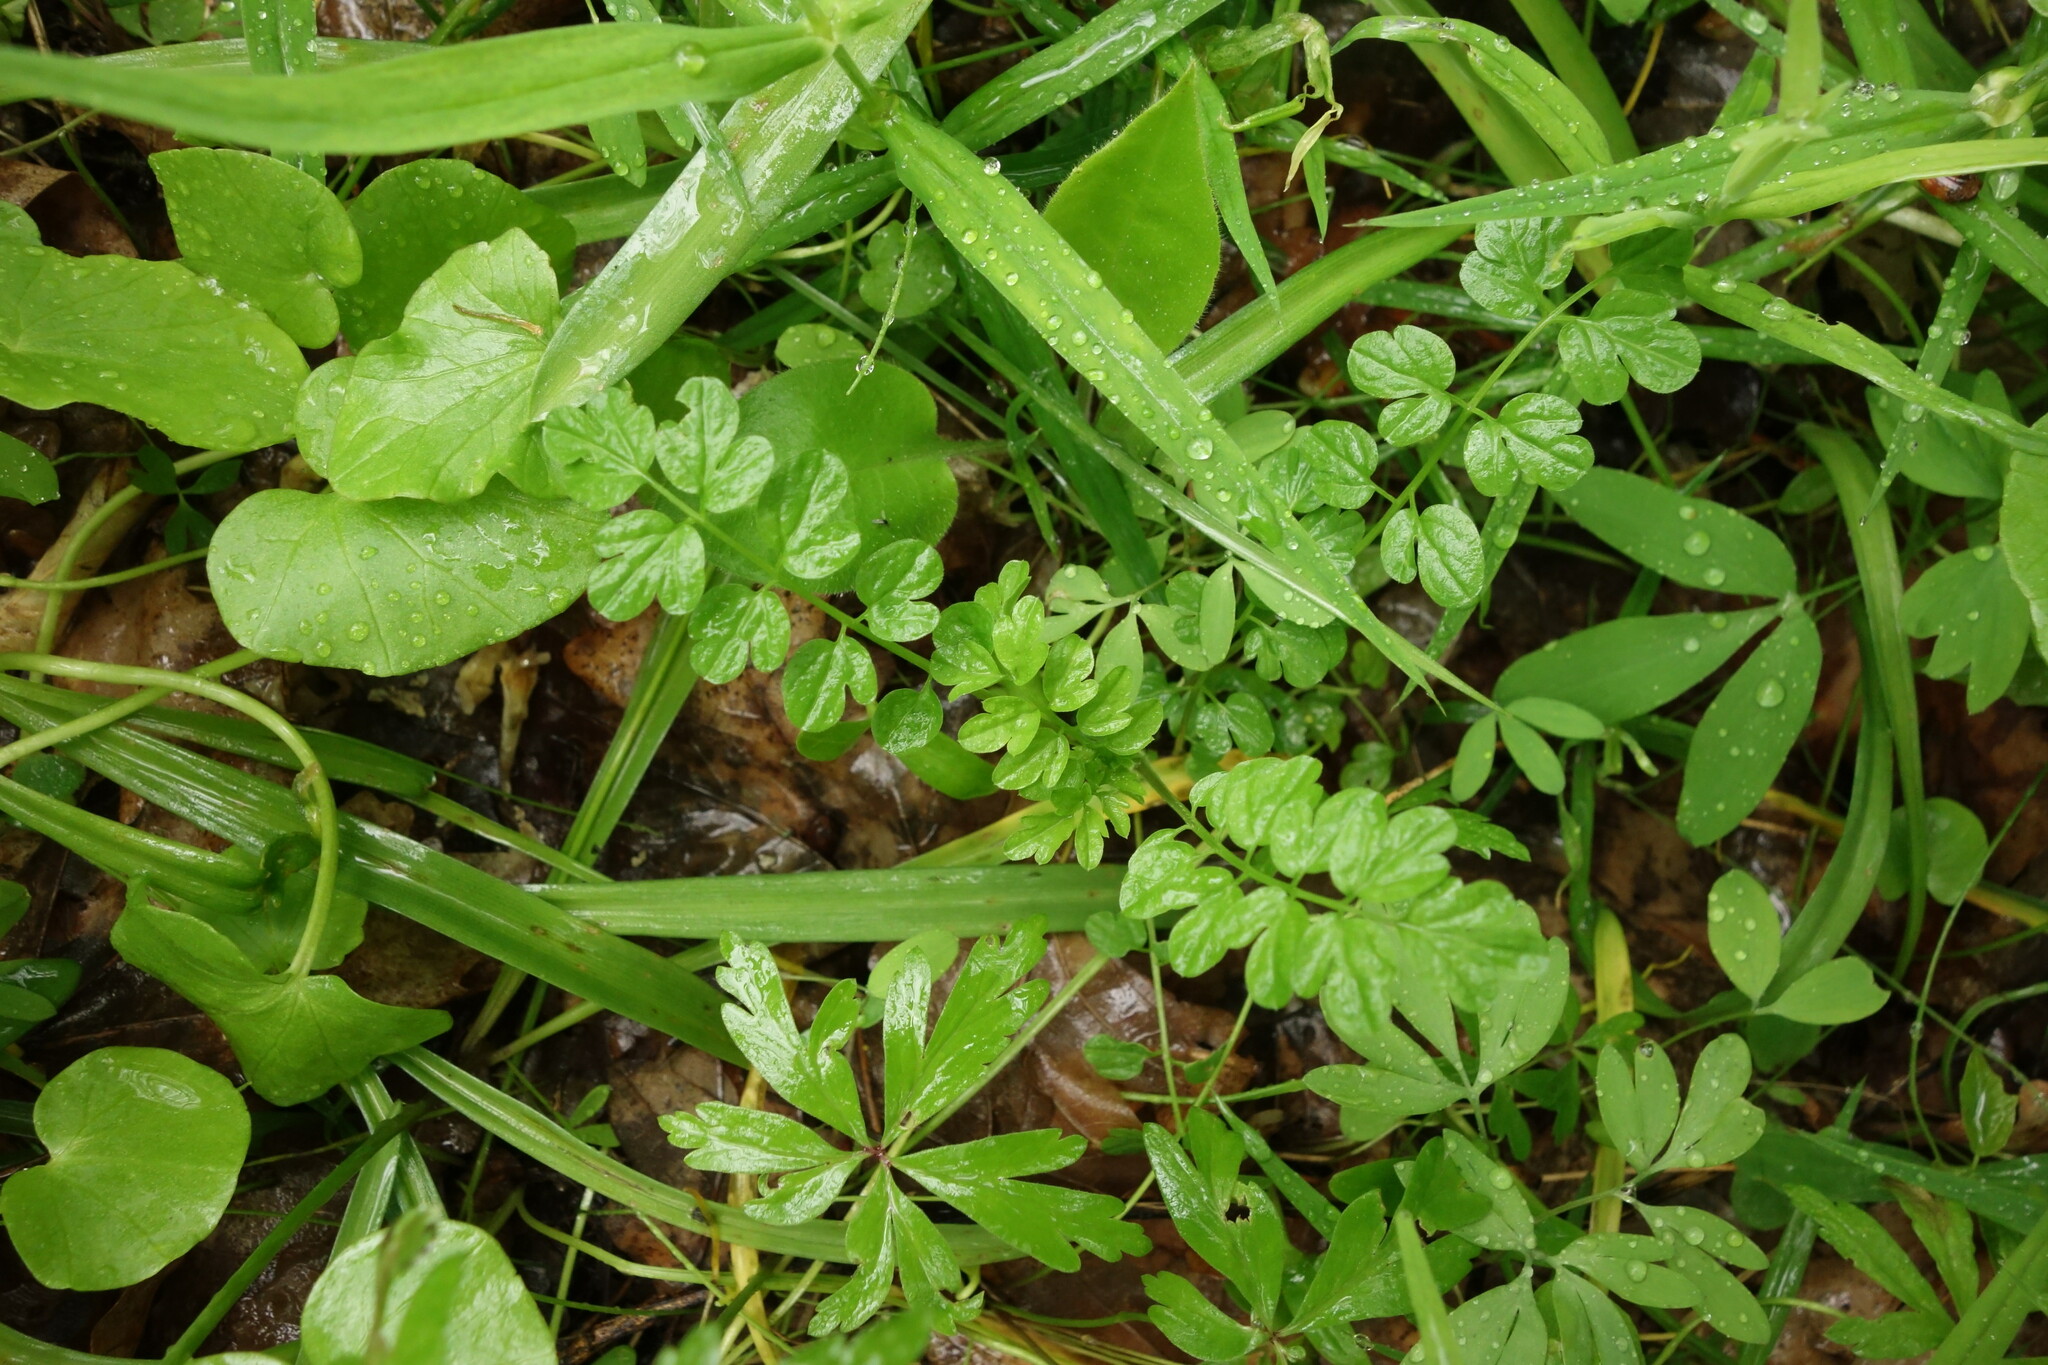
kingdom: Plantae
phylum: Tracheophyta
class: Magnoliopsida
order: Brassicales
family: Brassicaceae
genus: Cardamine
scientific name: Cardamine impatiens
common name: Narrow-leaved bitter-cress
